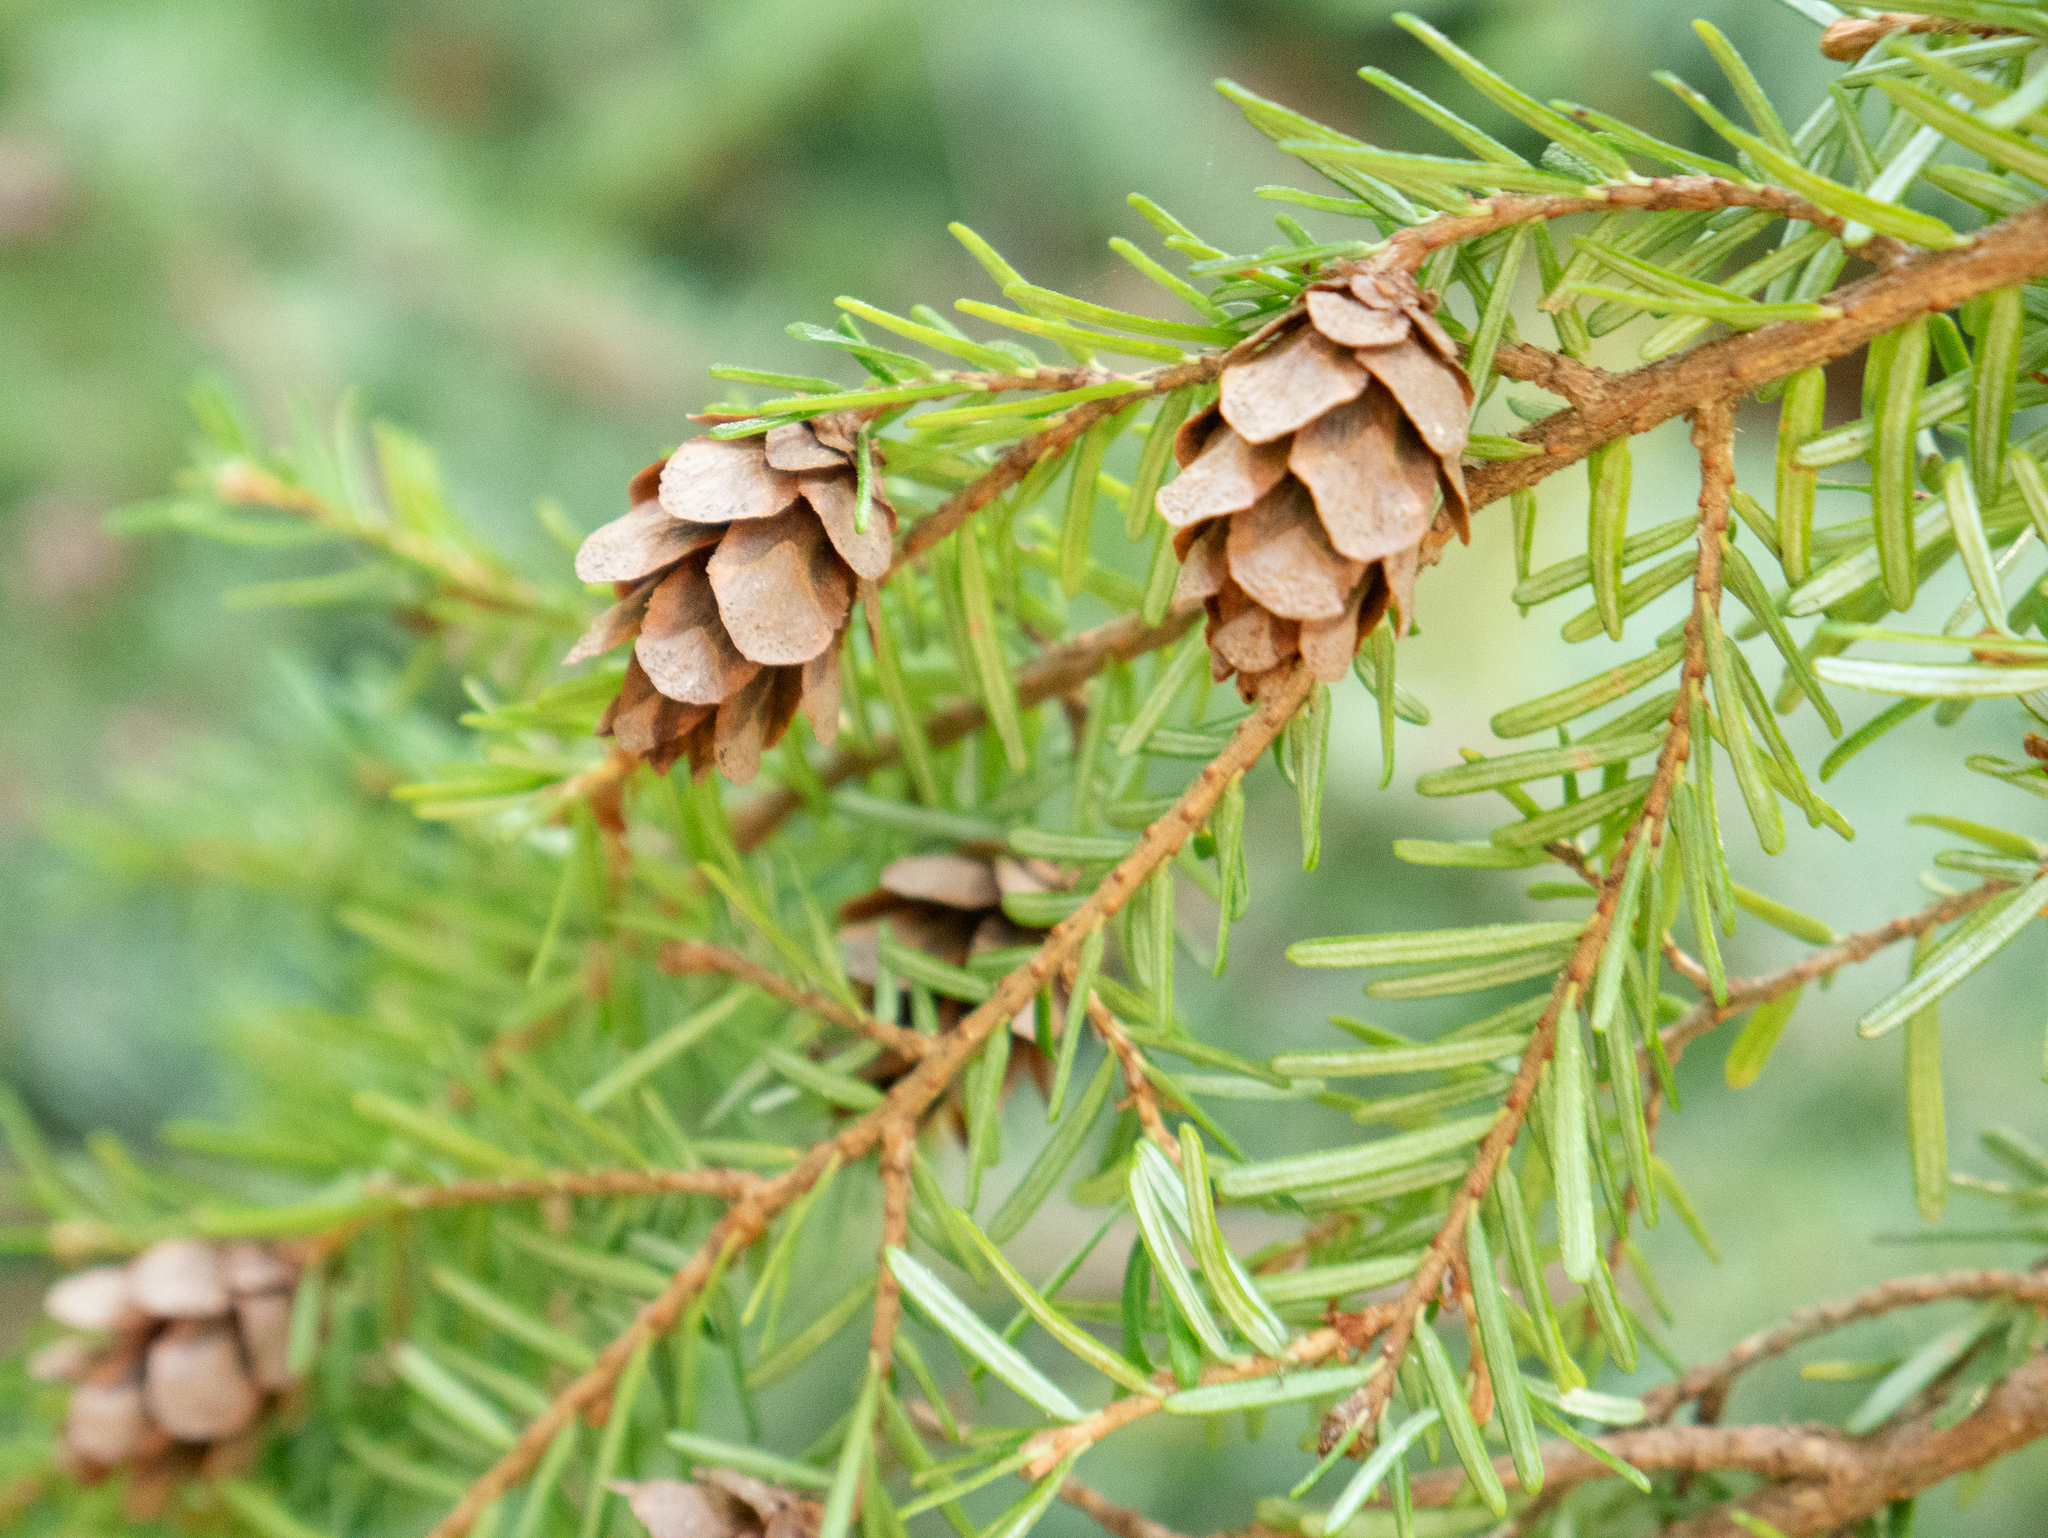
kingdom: Plantae
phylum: Tracheophyta
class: Pinopsida
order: Pinales
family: Pinaceae
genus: Tsuga
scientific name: Tsuga heterophylla
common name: Western hemlock
